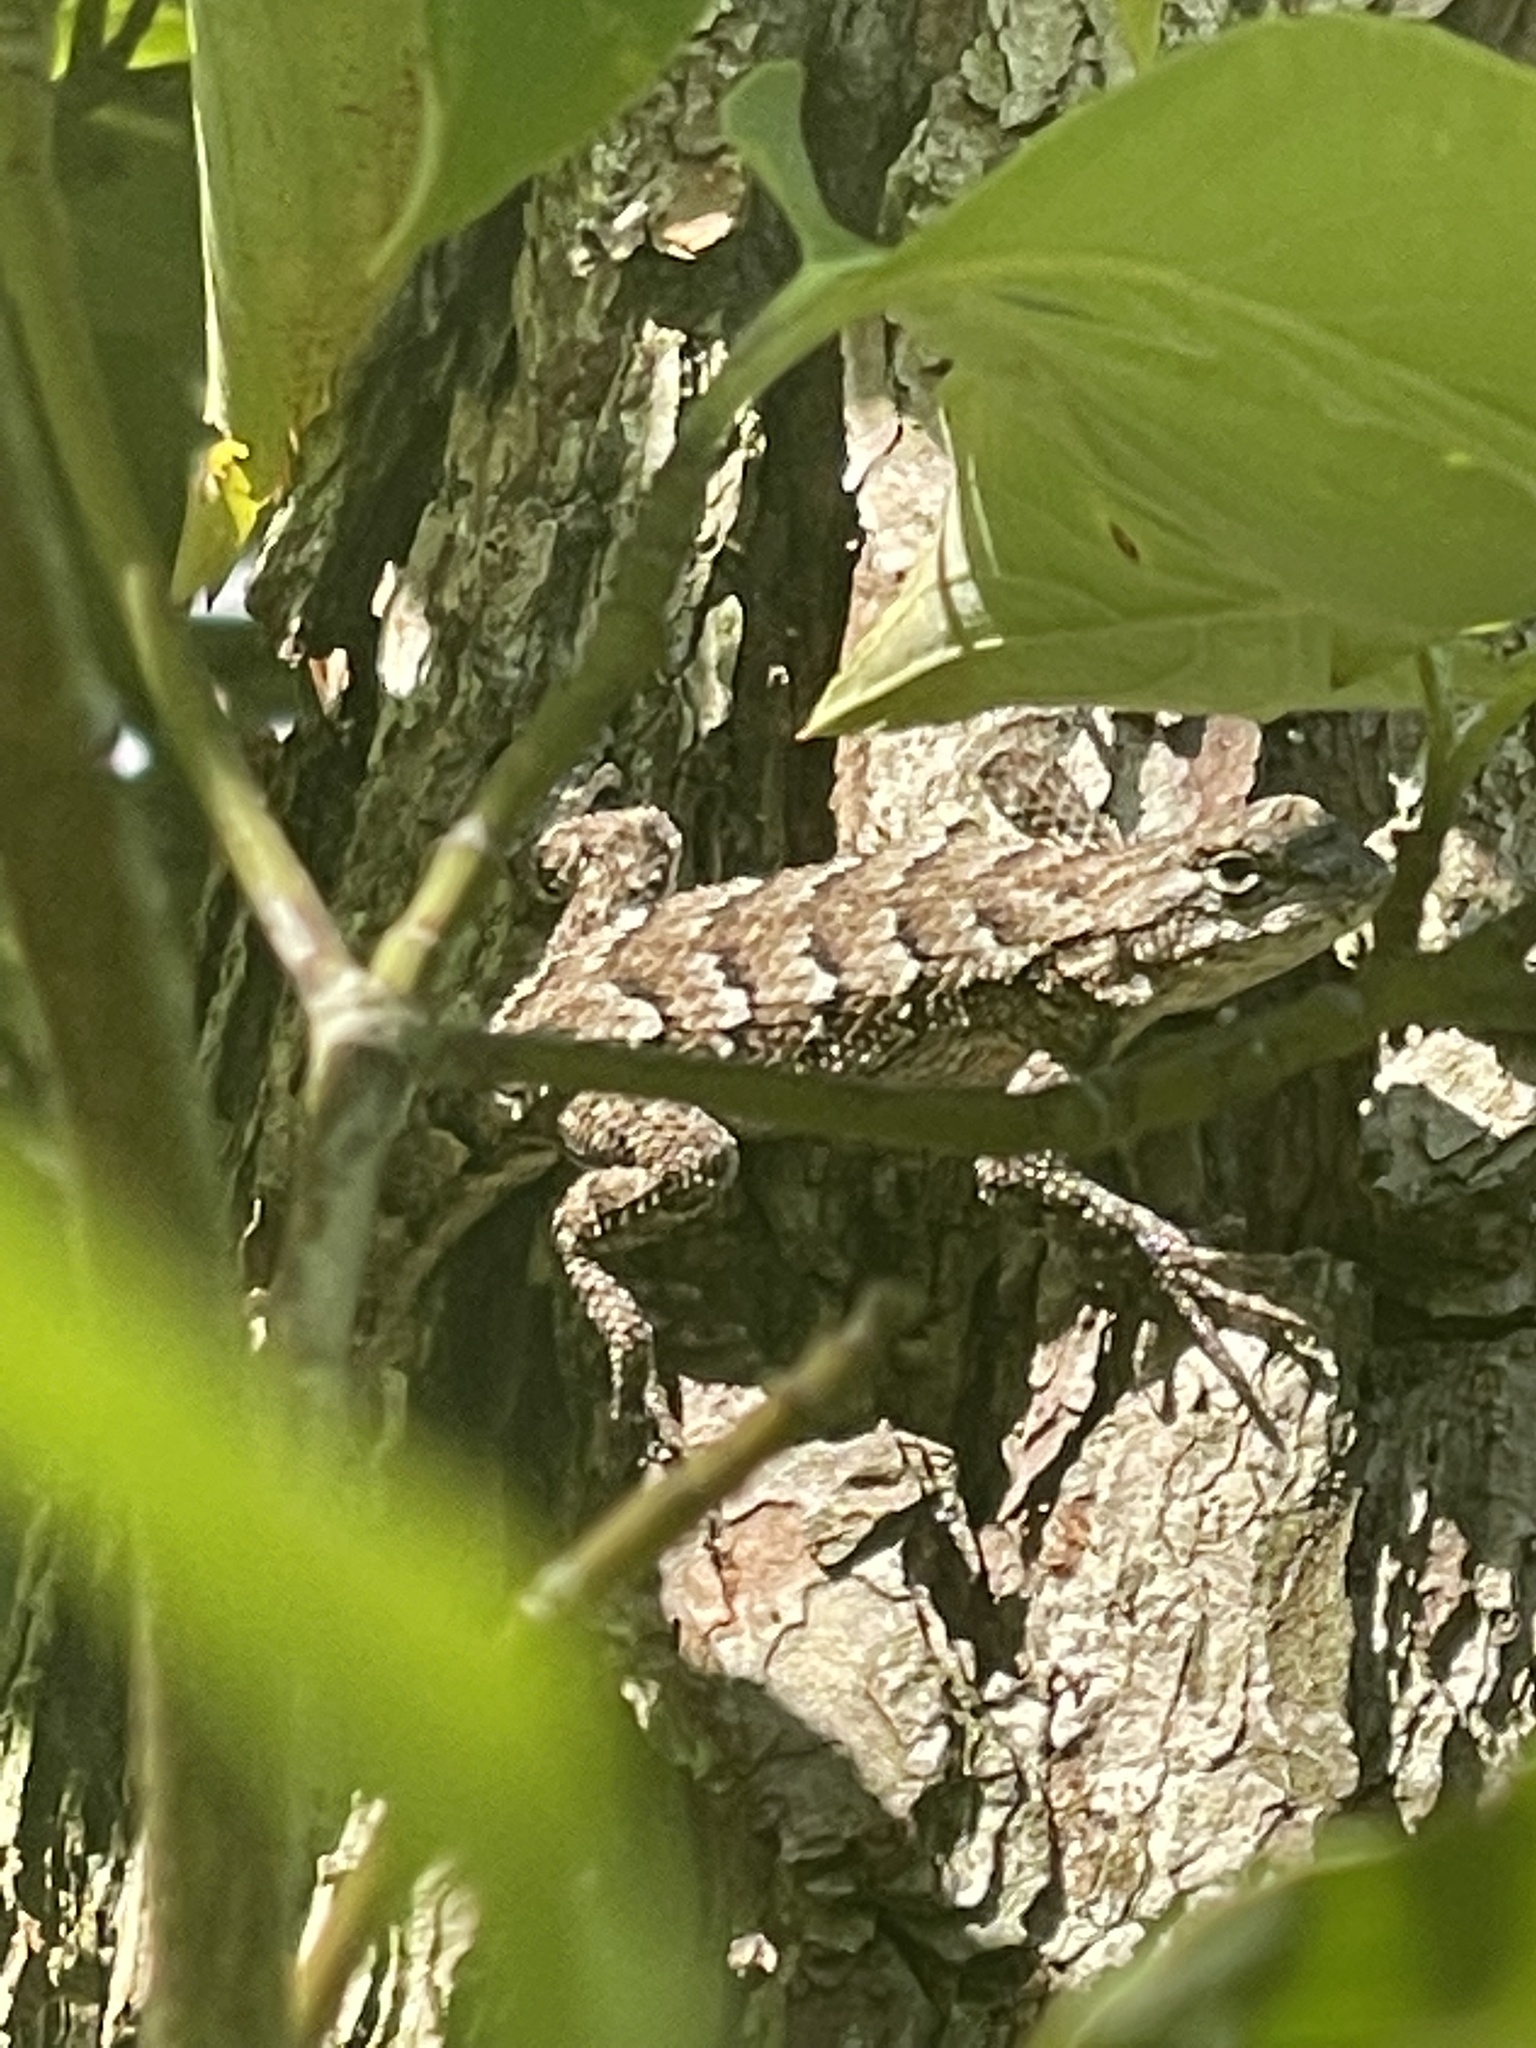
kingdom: Animalia
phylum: Chordata
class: Squamata
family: Phrynosomatidae
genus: Sceloporus
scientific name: Sceloporus undulatus
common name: Eastern fence lizard
